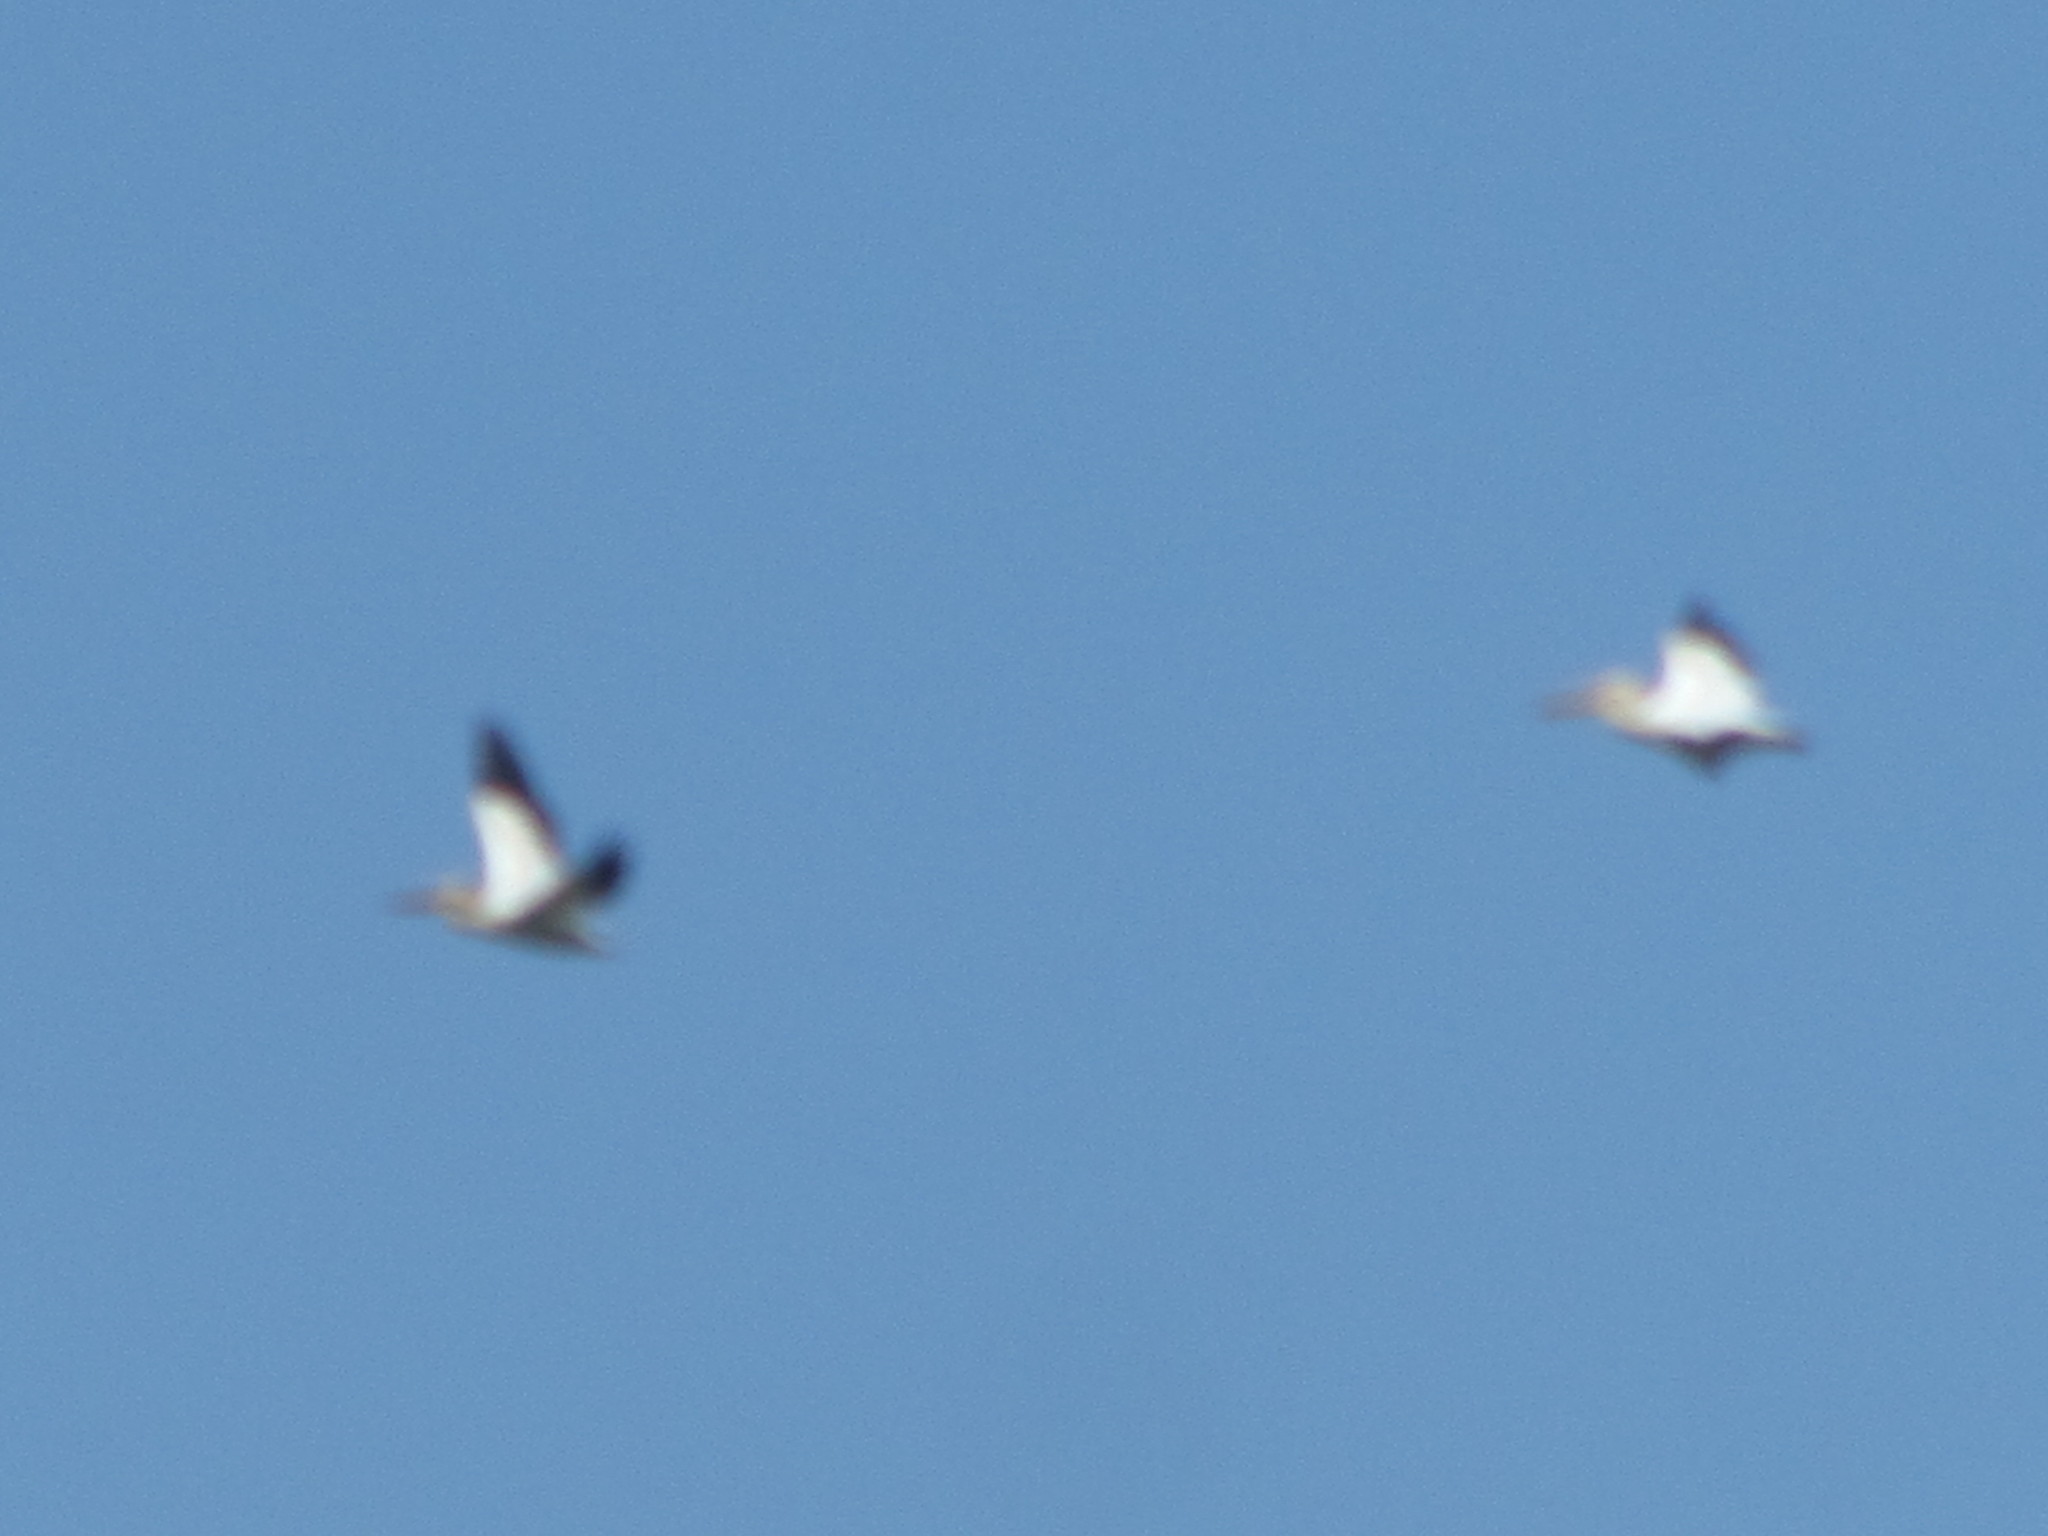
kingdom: Animalia
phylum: Chordata
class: Aves
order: Pelecaniformes
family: Pelecanidae
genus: Pelecanus
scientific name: Pelecanus erythrorhynchos
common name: American white pelican
